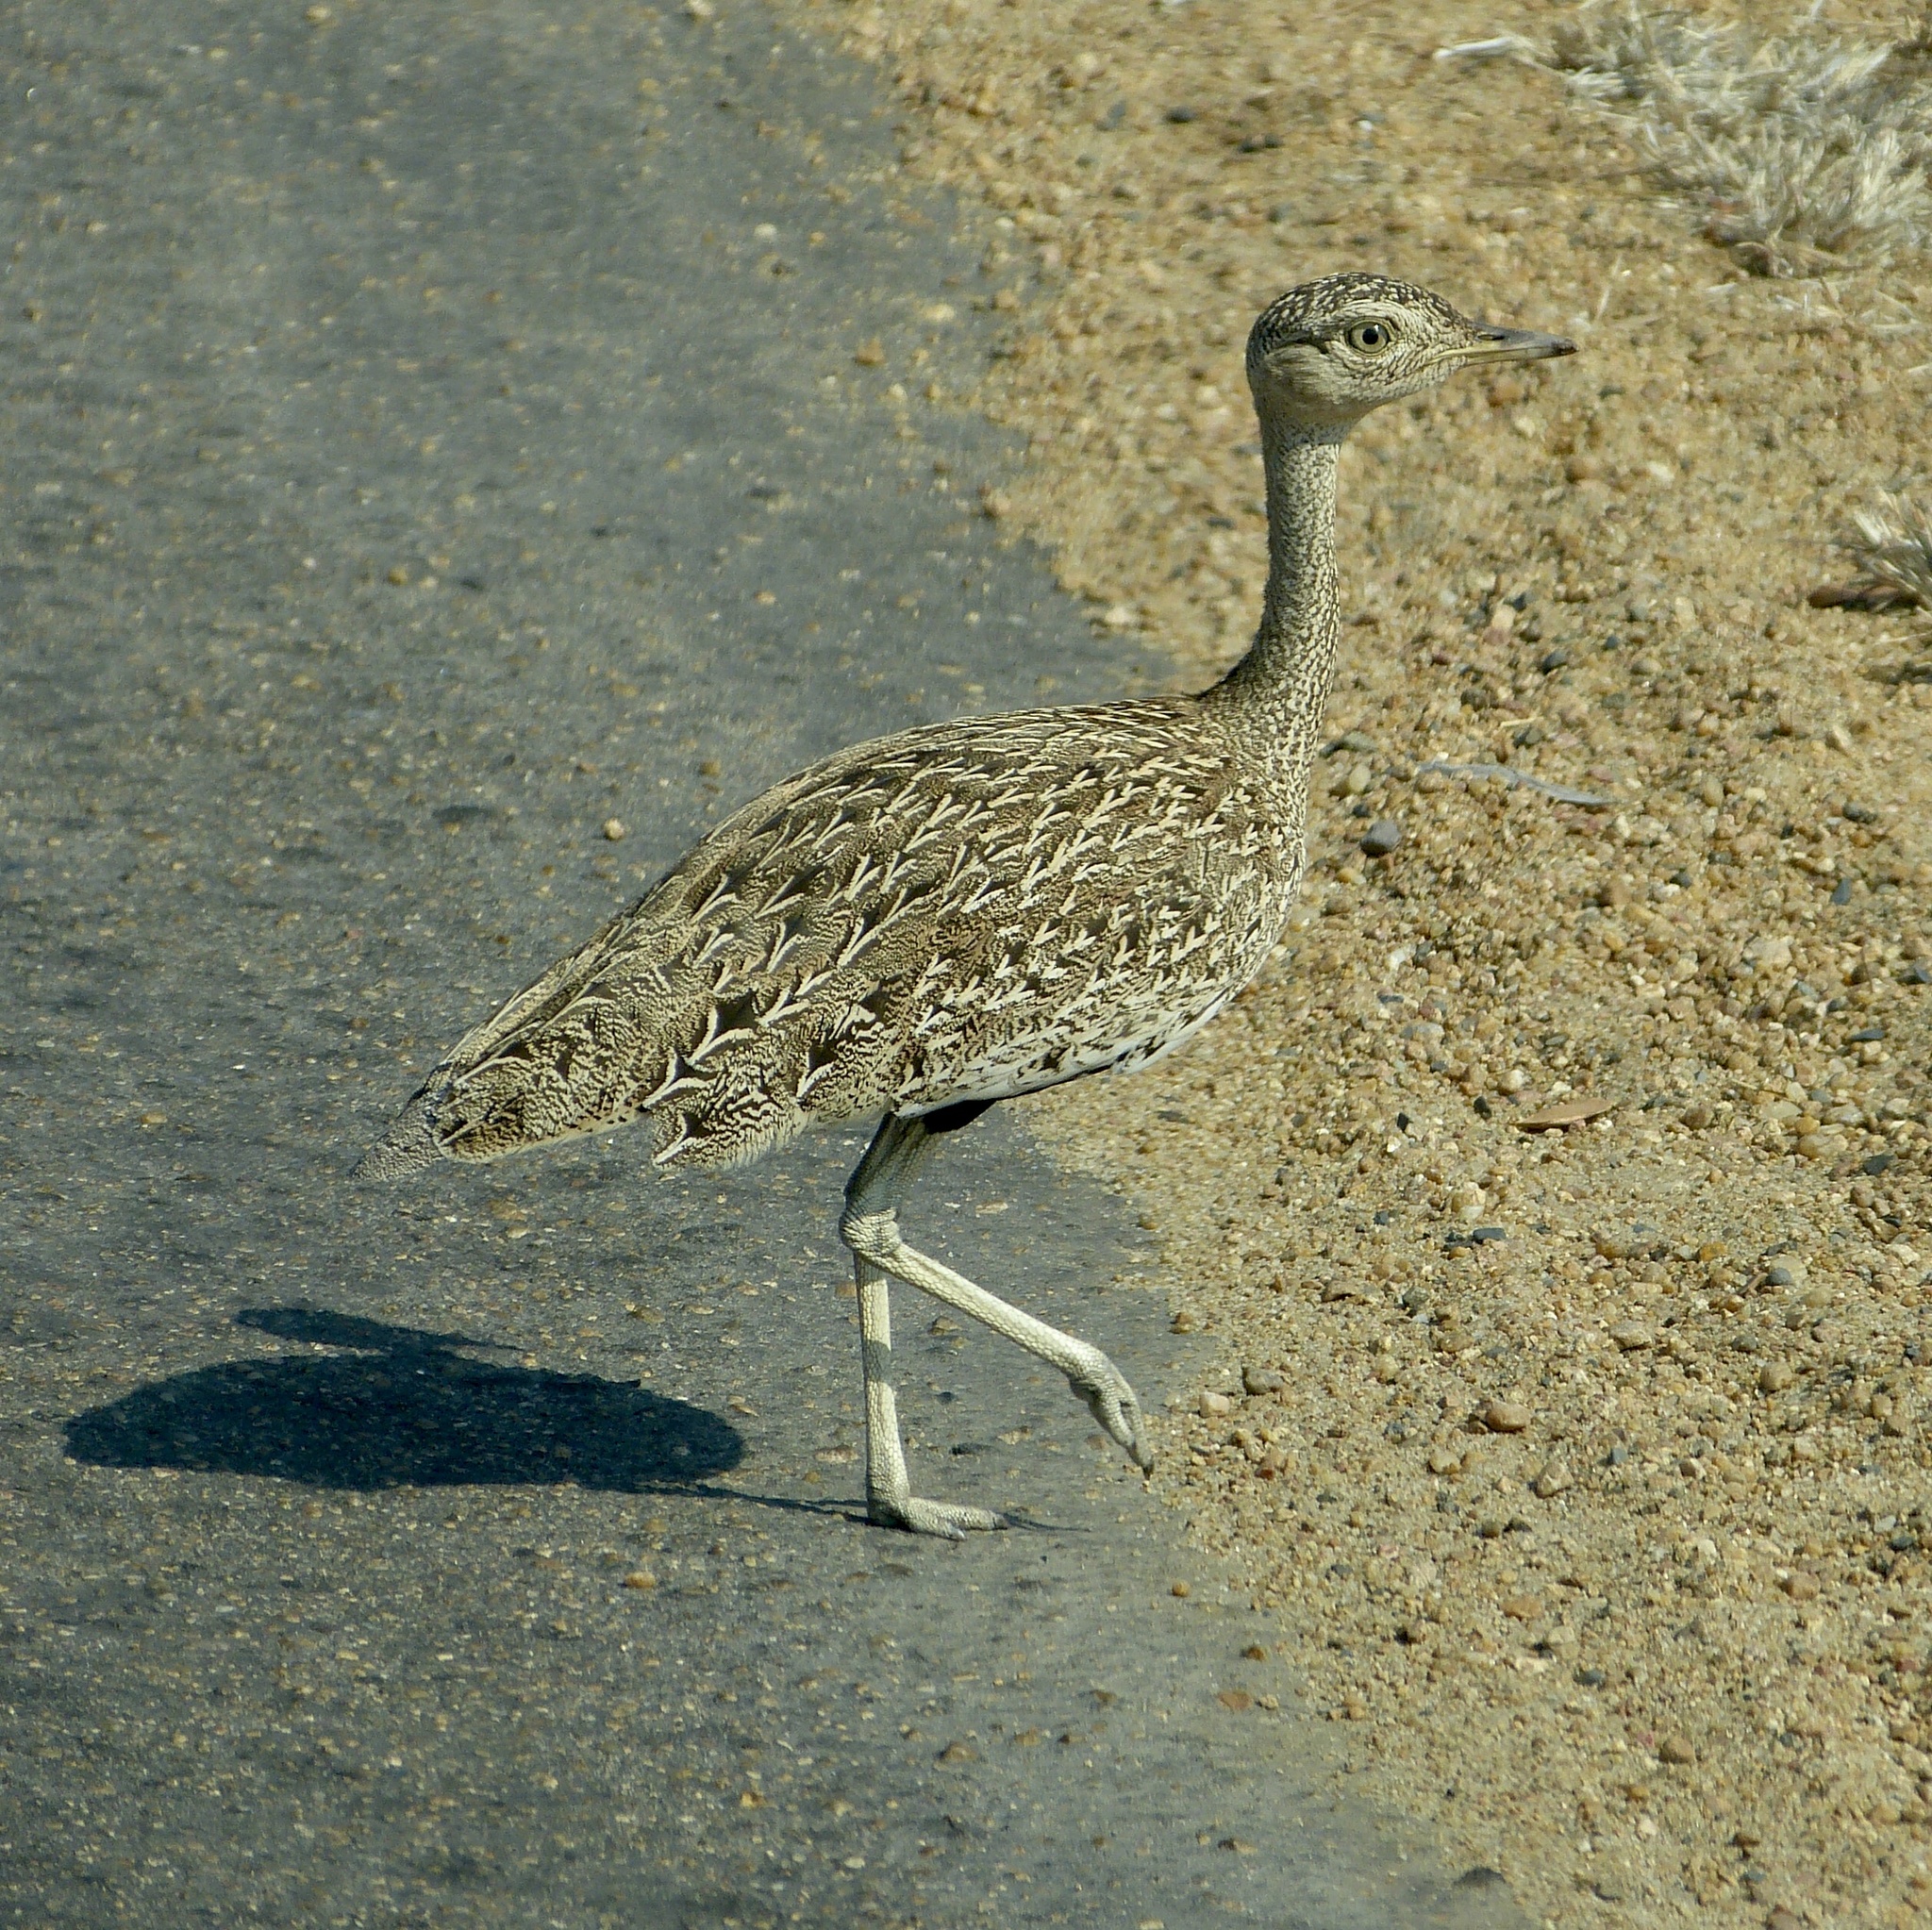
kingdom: Animalia
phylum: Chordata
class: Aves
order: Otidiformes
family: Otididae
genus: Lophotis
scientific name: Lophotis ruficrista
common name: Red-crested korhaan
